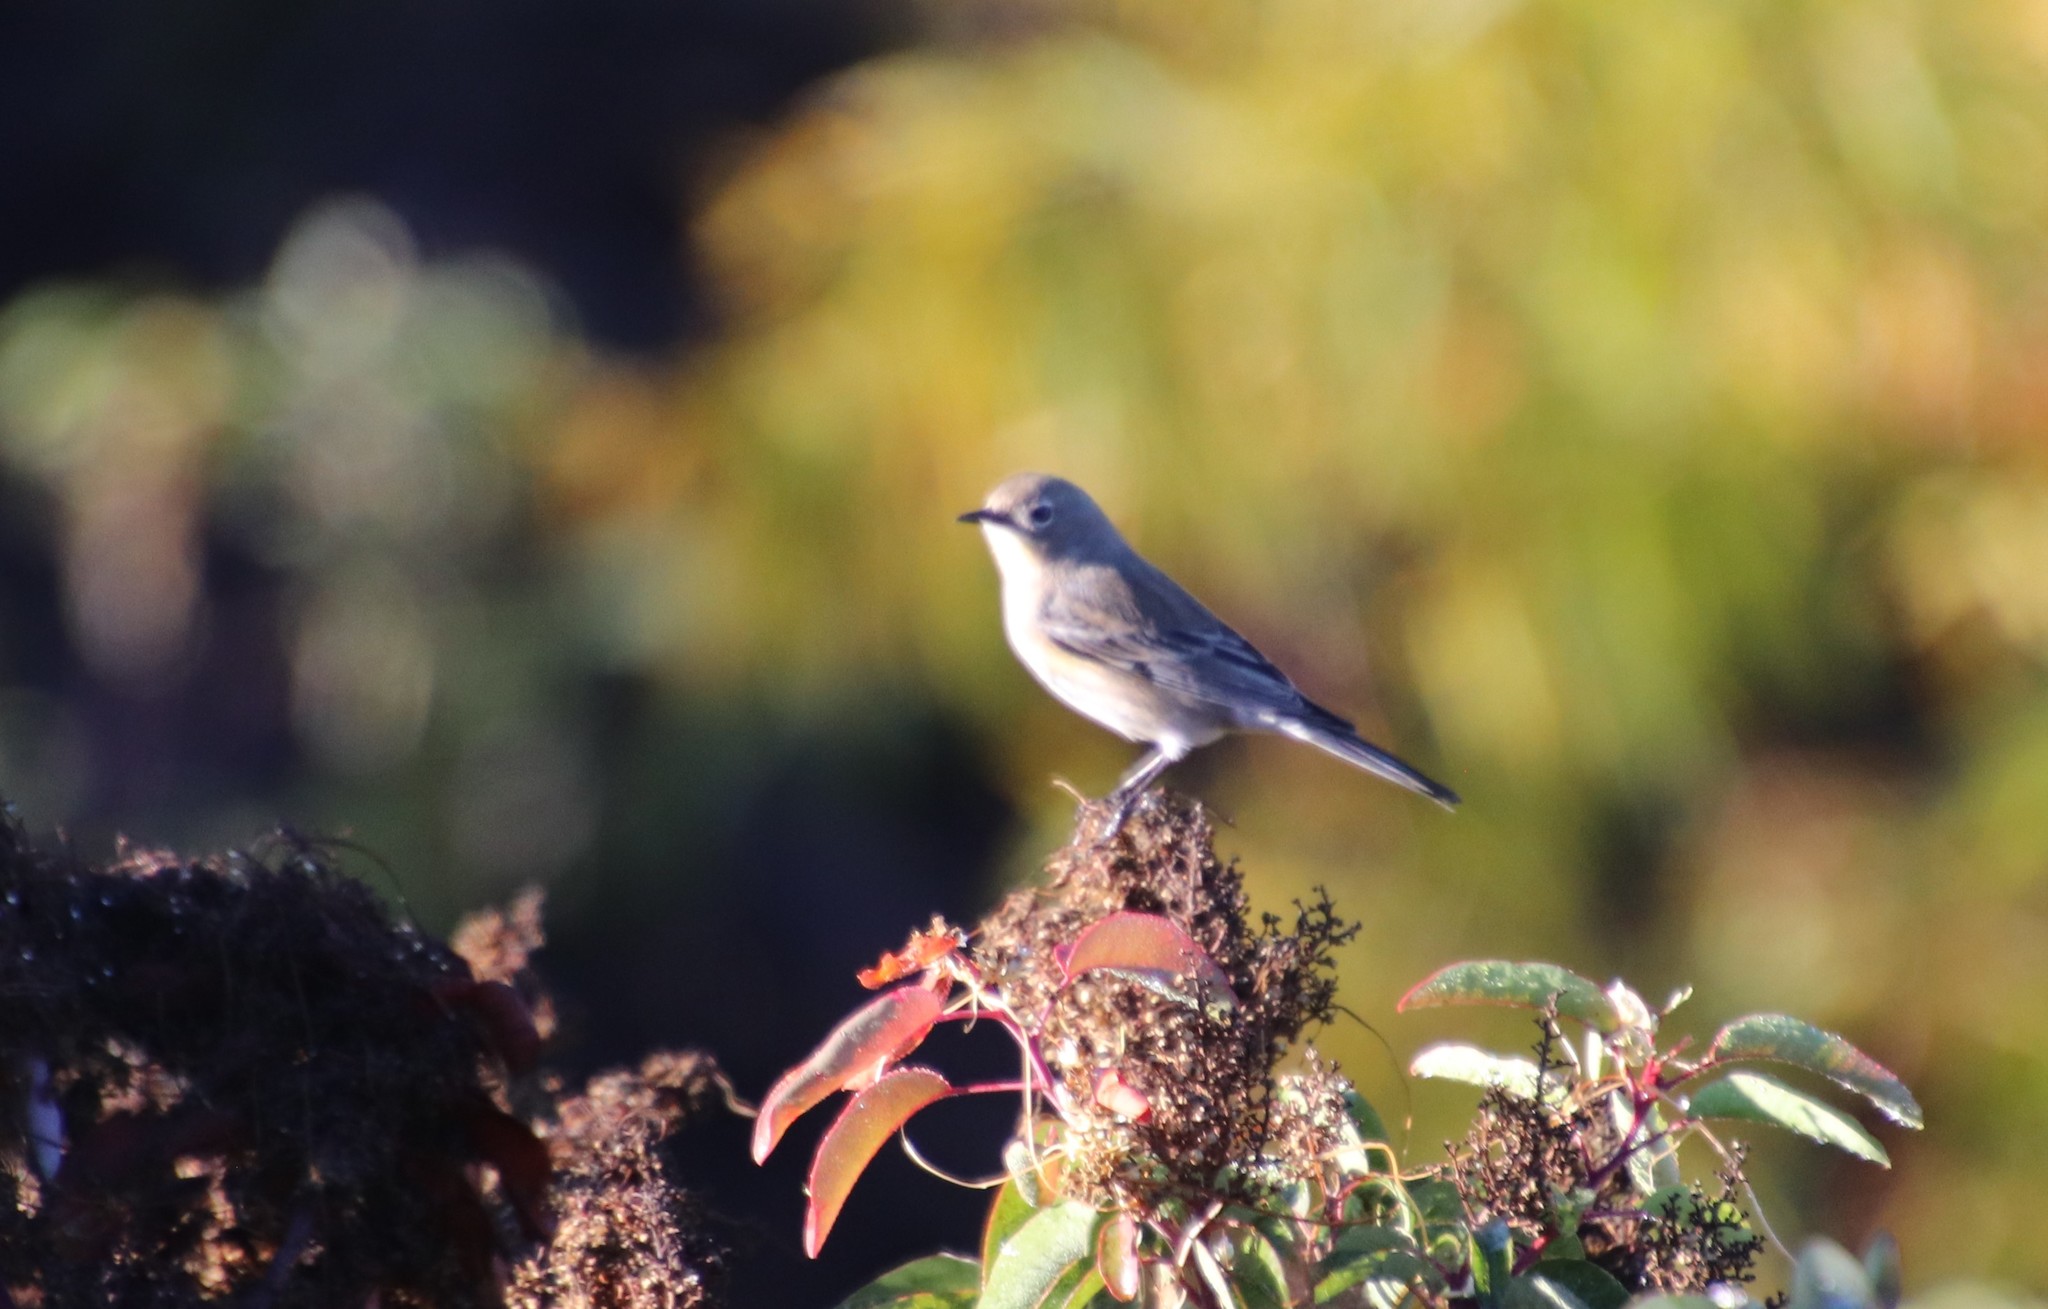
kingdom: Animalia
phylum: Chordata
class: Aves
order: Passeriformes
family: Parulidae
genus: Setophaga
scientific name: Setophaga coronata
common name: Myrtle warbler
